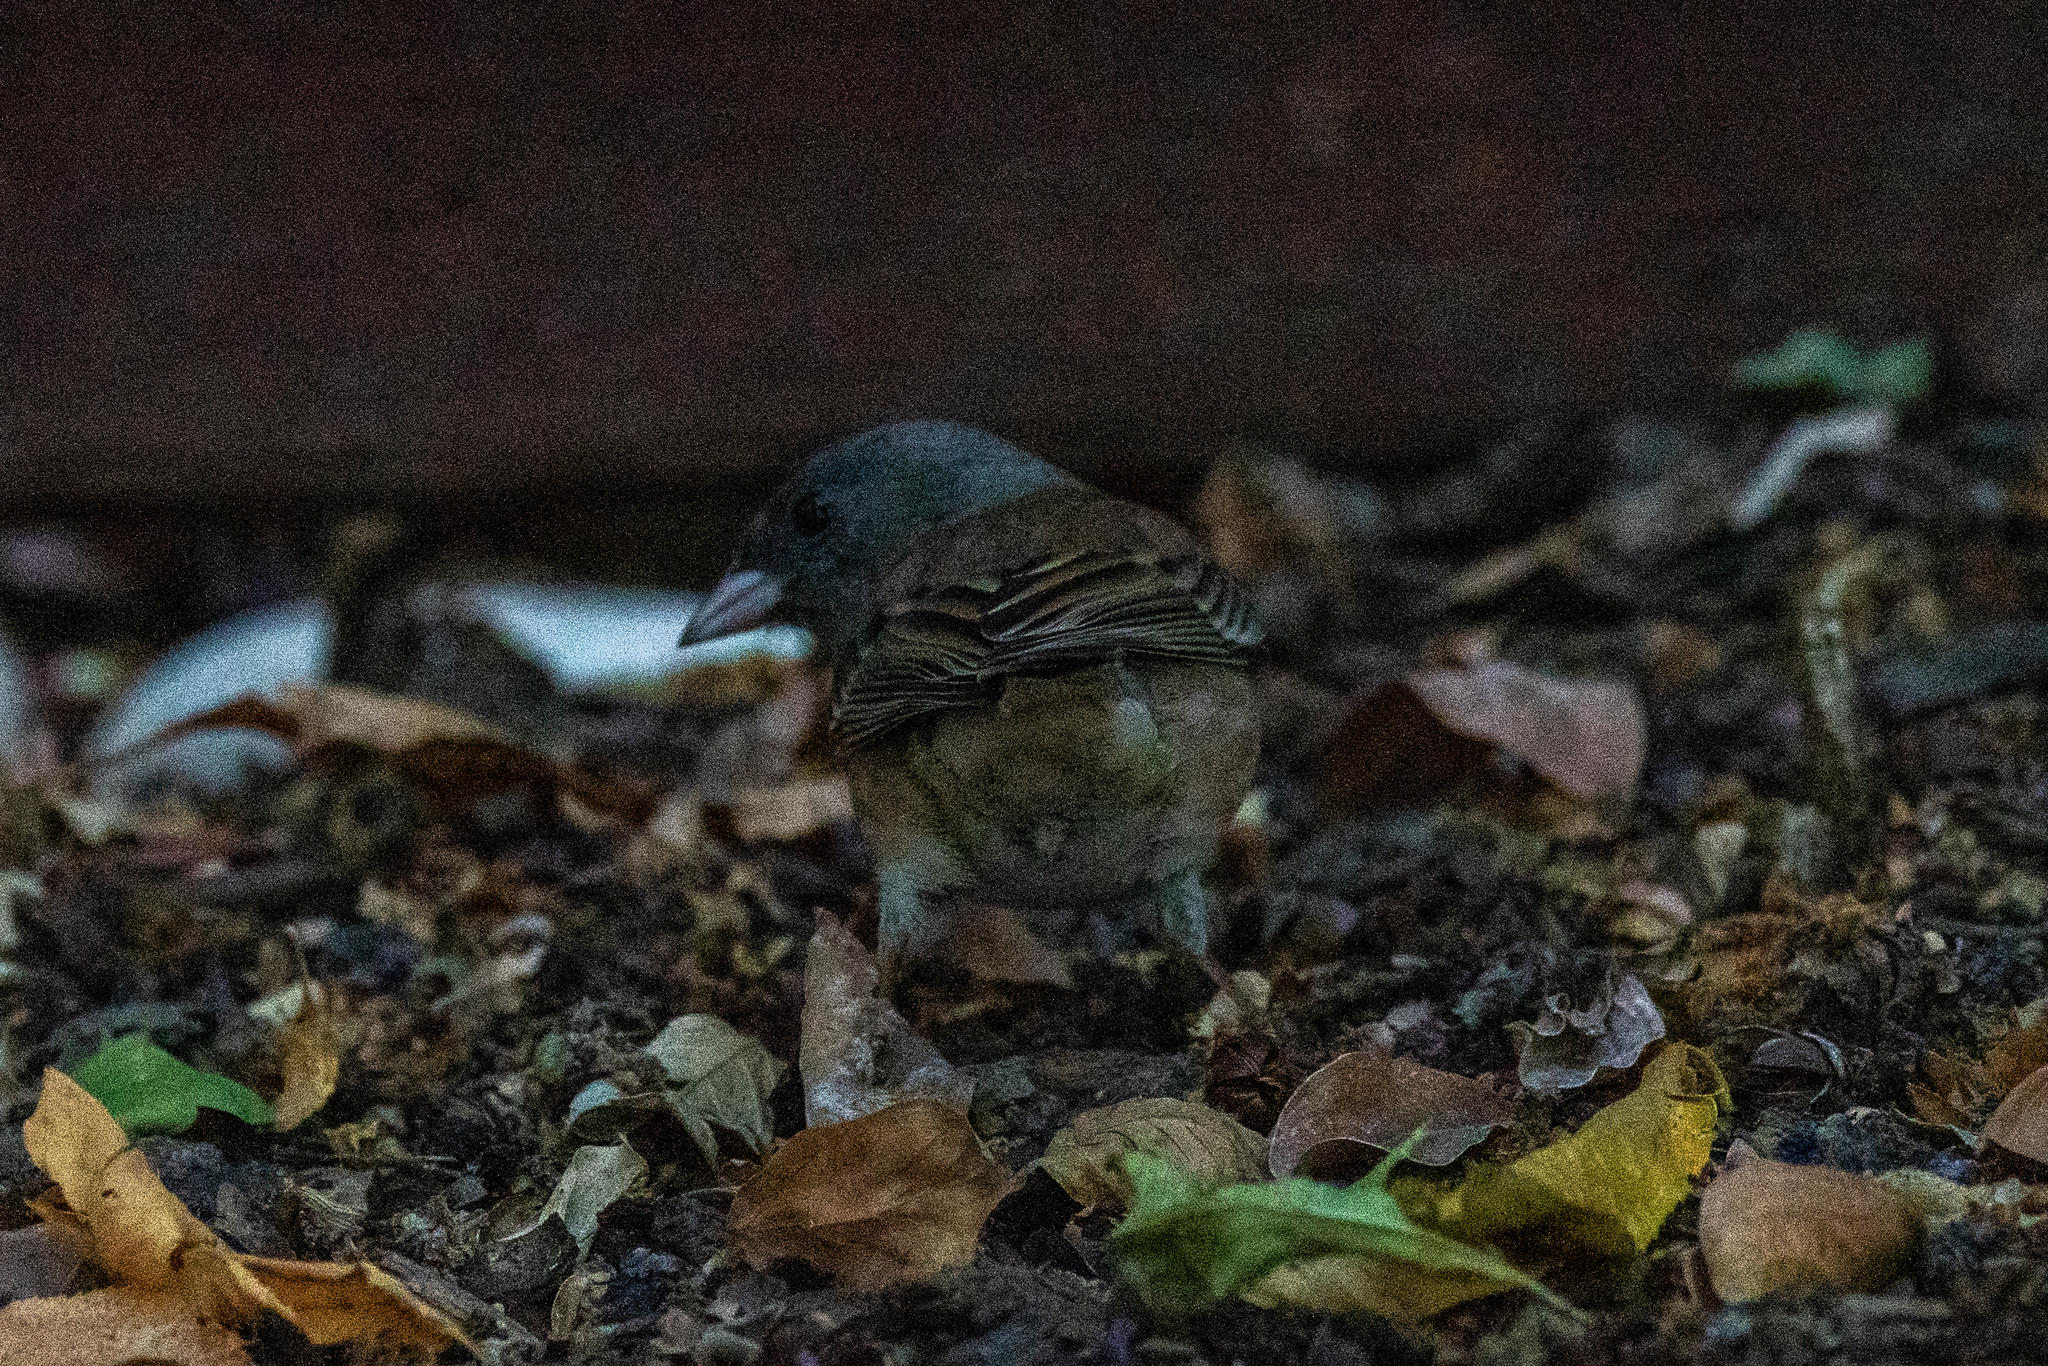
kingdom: Animalia
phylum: Chordata
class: Aves
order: Passeriformes
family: Passerellidae
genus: Junco
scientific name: Junco hyemalis
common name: Dark-eyed junco
